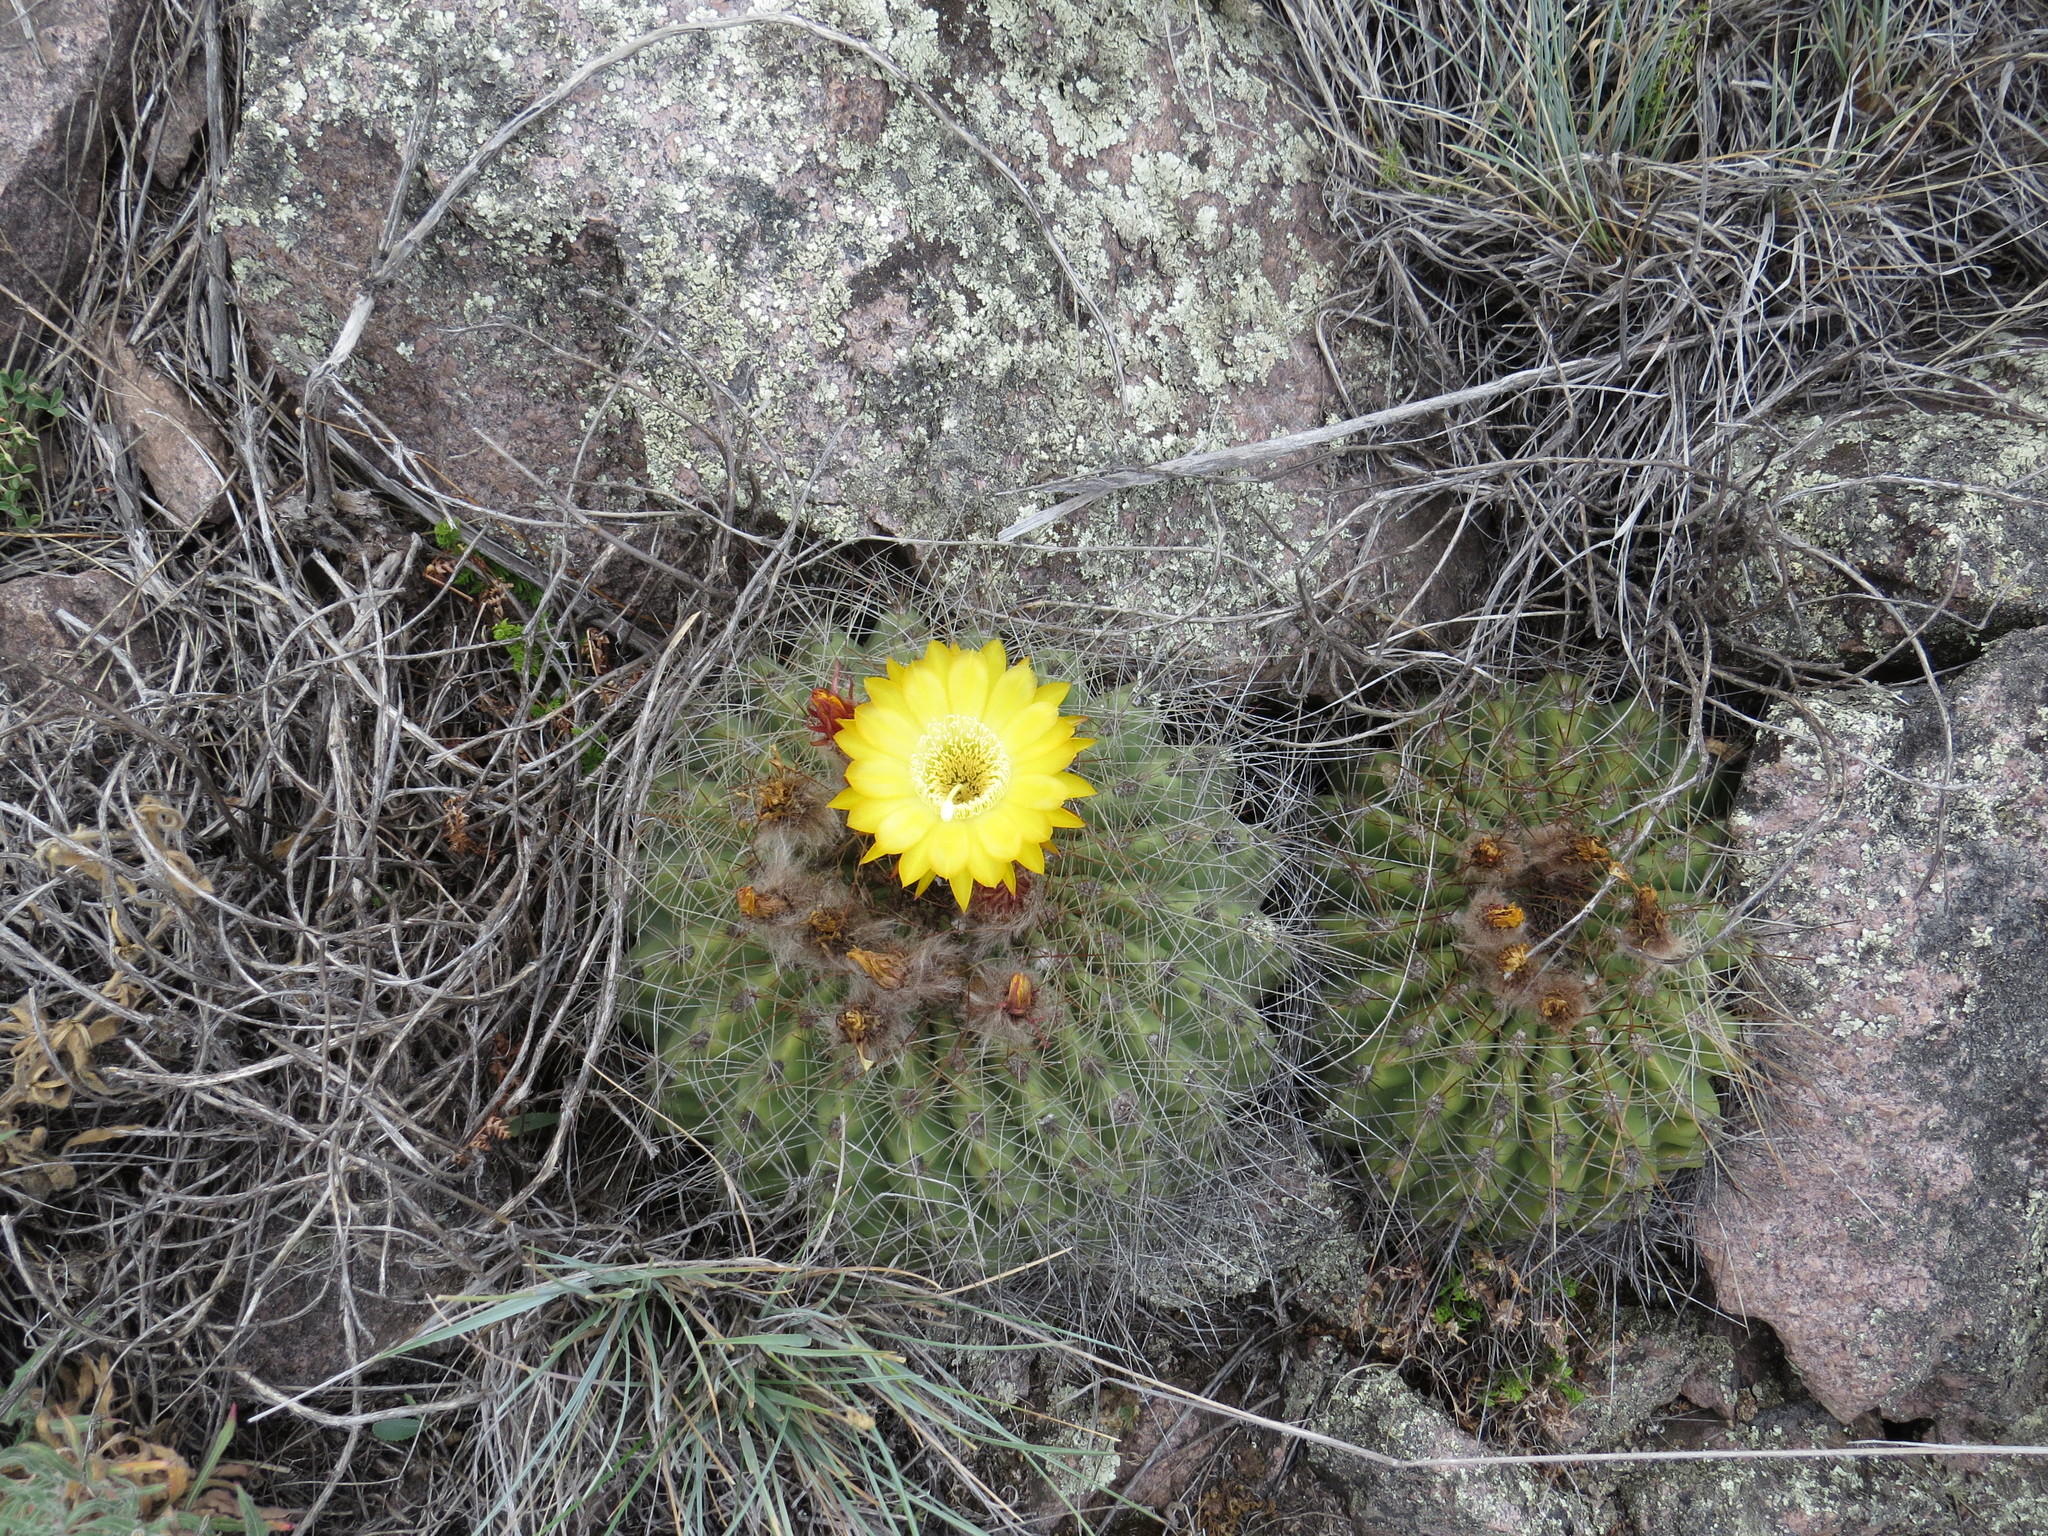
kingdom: Plantae
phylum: Tracheophyta
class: Magnoliopsida
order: Caryophyllales
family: Cactaceae
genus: Soehrensia
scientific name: Soehrensia formosa
